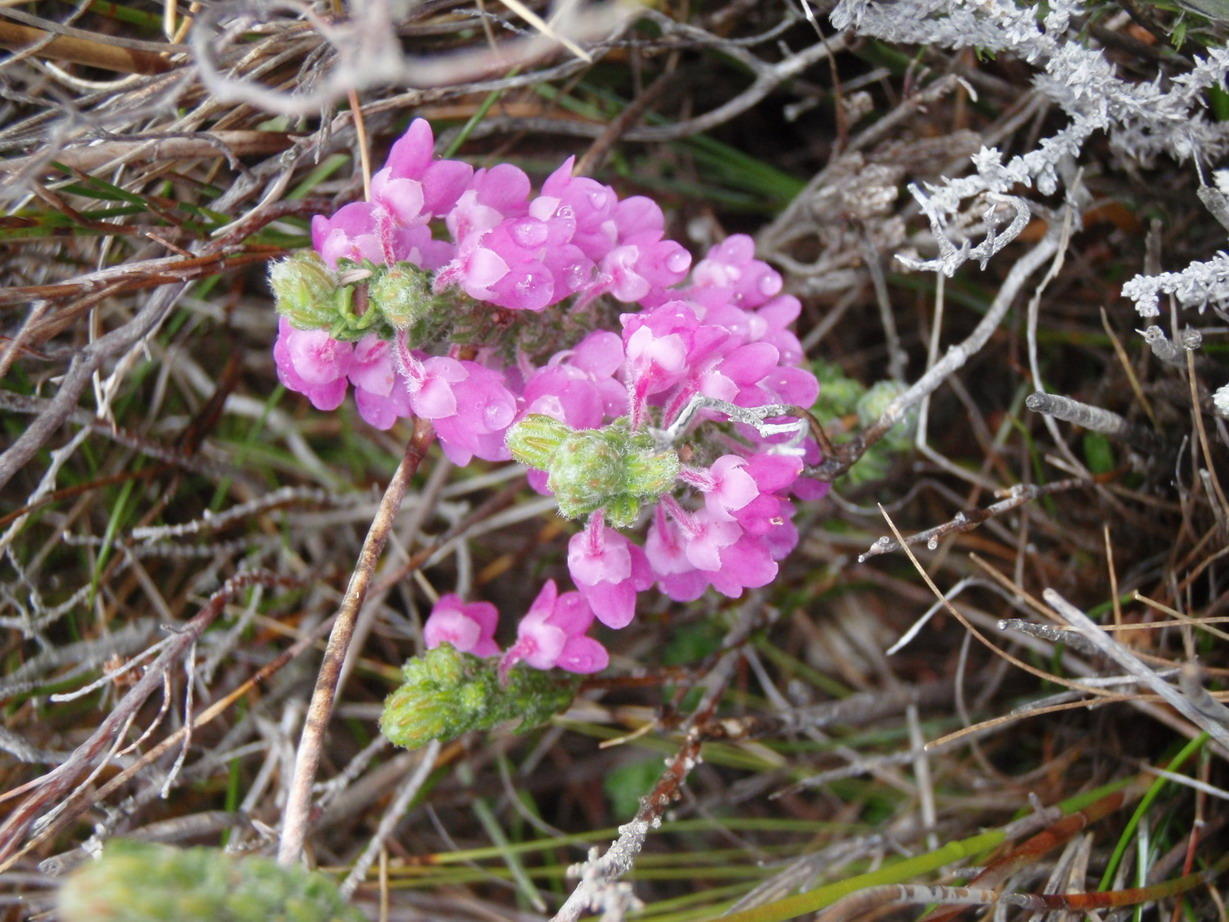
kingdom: Plantae
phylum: Tracheophyta
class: Magnoliopsida
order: Ericales
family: Ericaceae
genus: Erica
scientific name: Erica nervata
